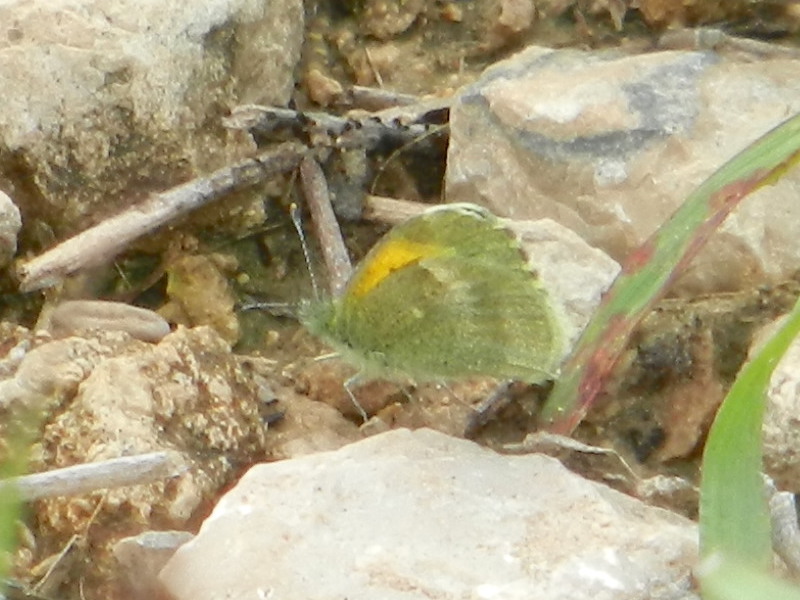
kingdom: Animalia
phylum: Arthropoda
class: Insecta
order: Lepidoptera
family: Pieridae
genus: Nathalis
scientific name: Nathalis iole
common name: Dainty sulphur
